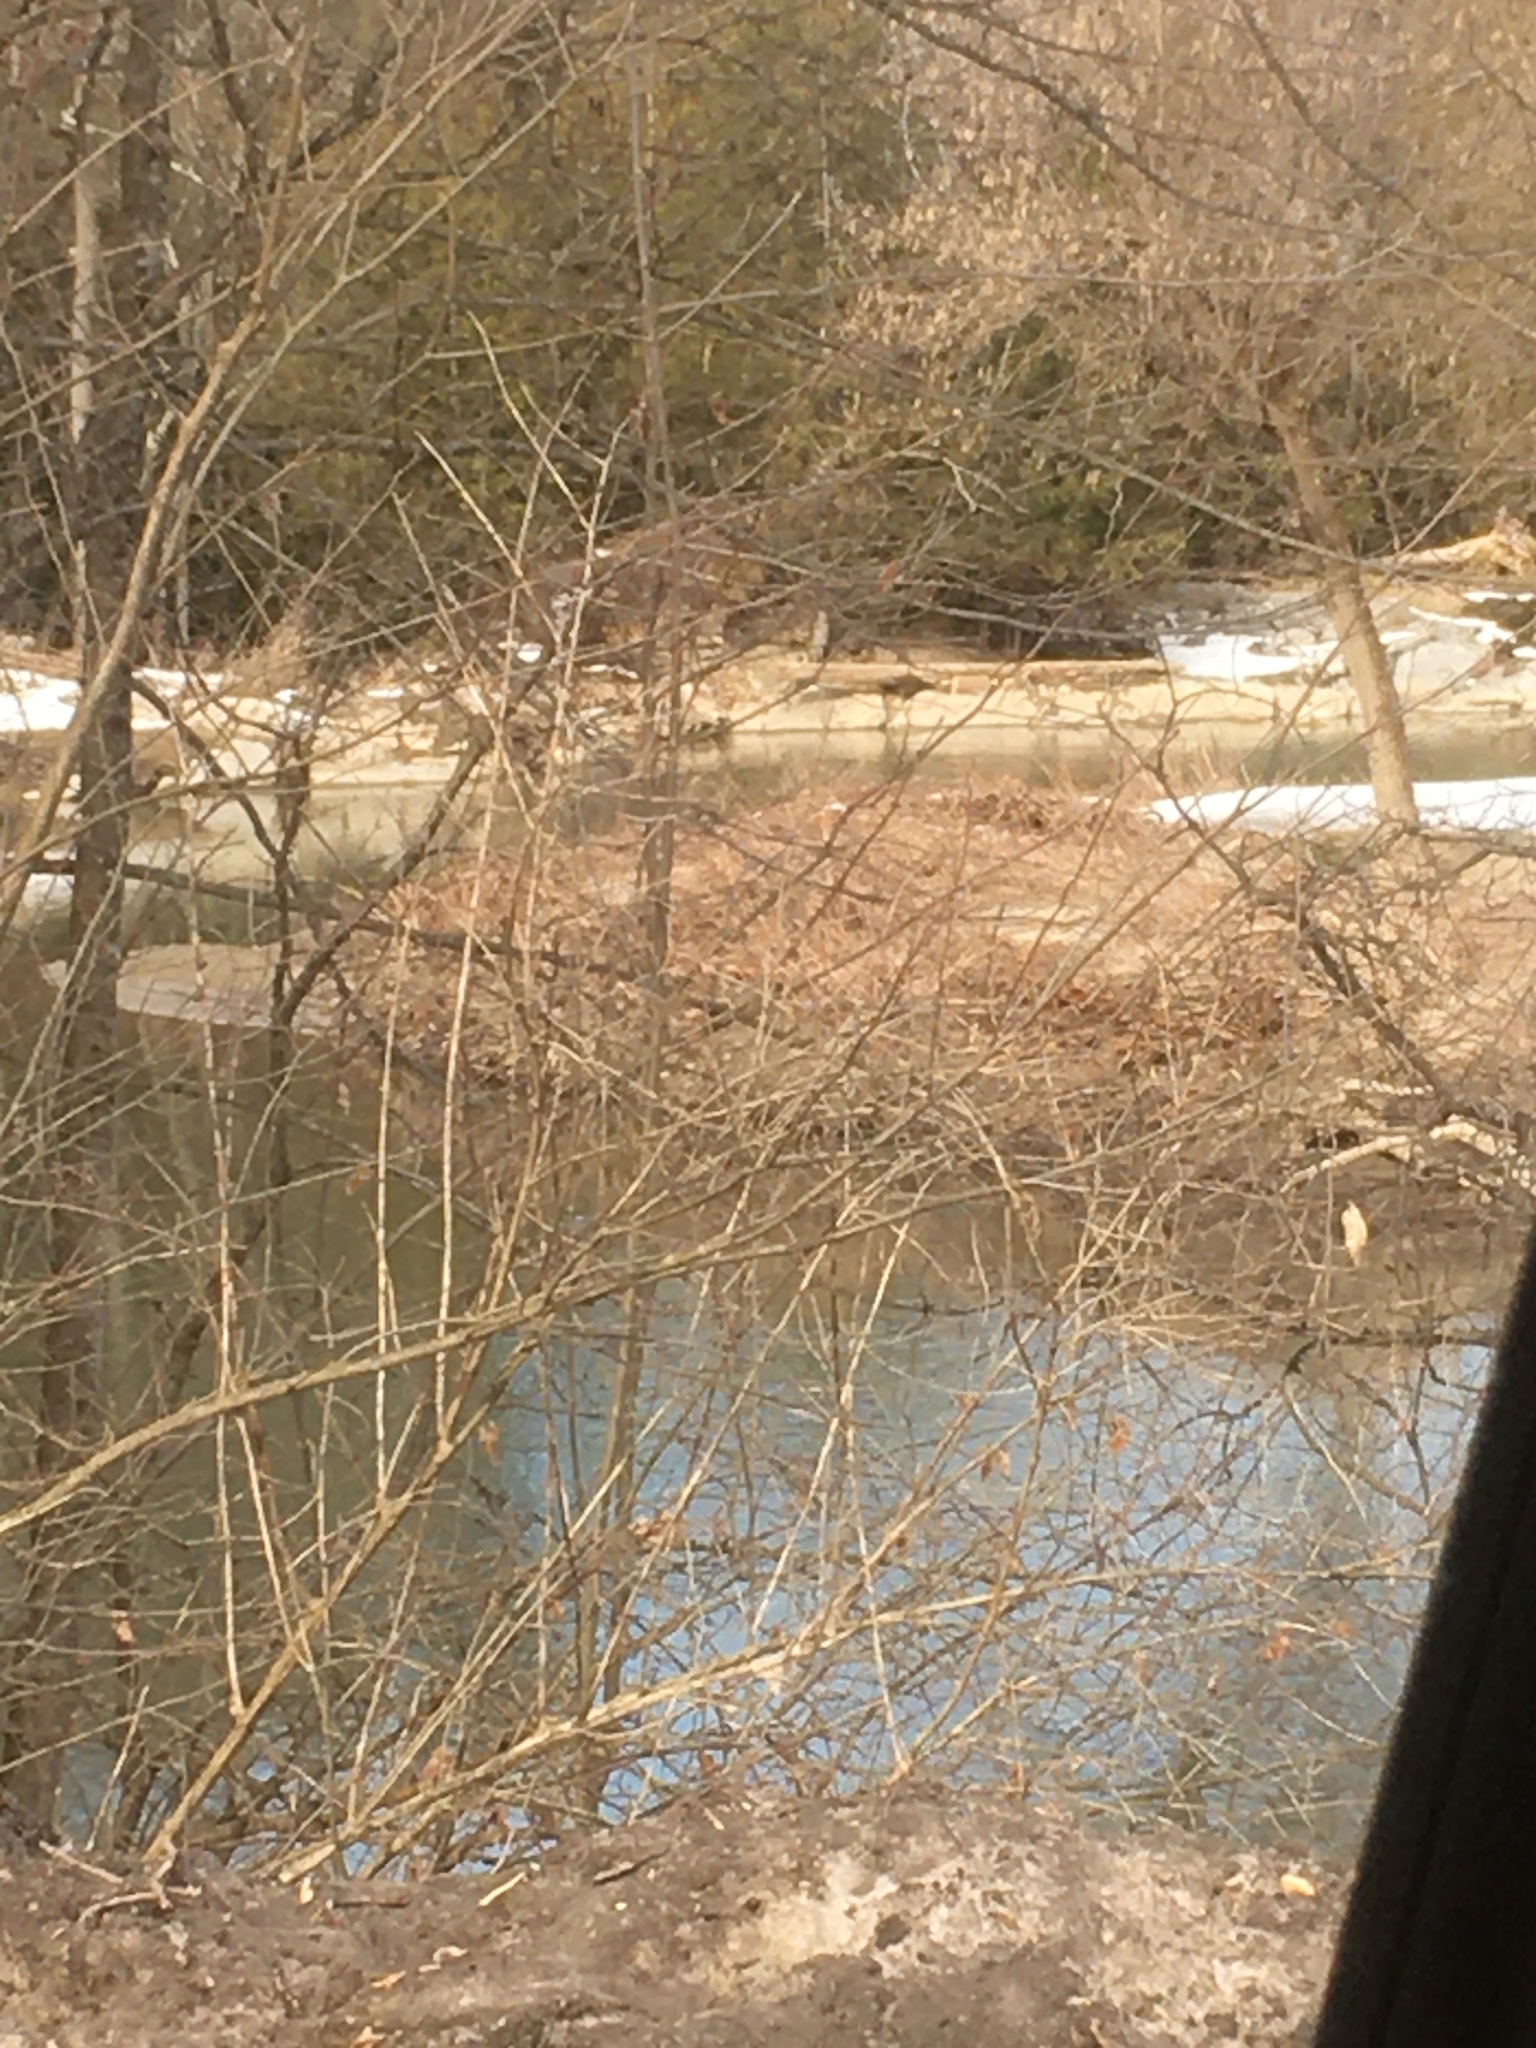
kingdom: Plantae
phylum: Tracheophyta
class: Magnoliopsida
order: Caryophyllales
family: Polygonaceae
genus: Reynoutria
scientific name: Reynoutria japonica
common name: Japanese knotweed
